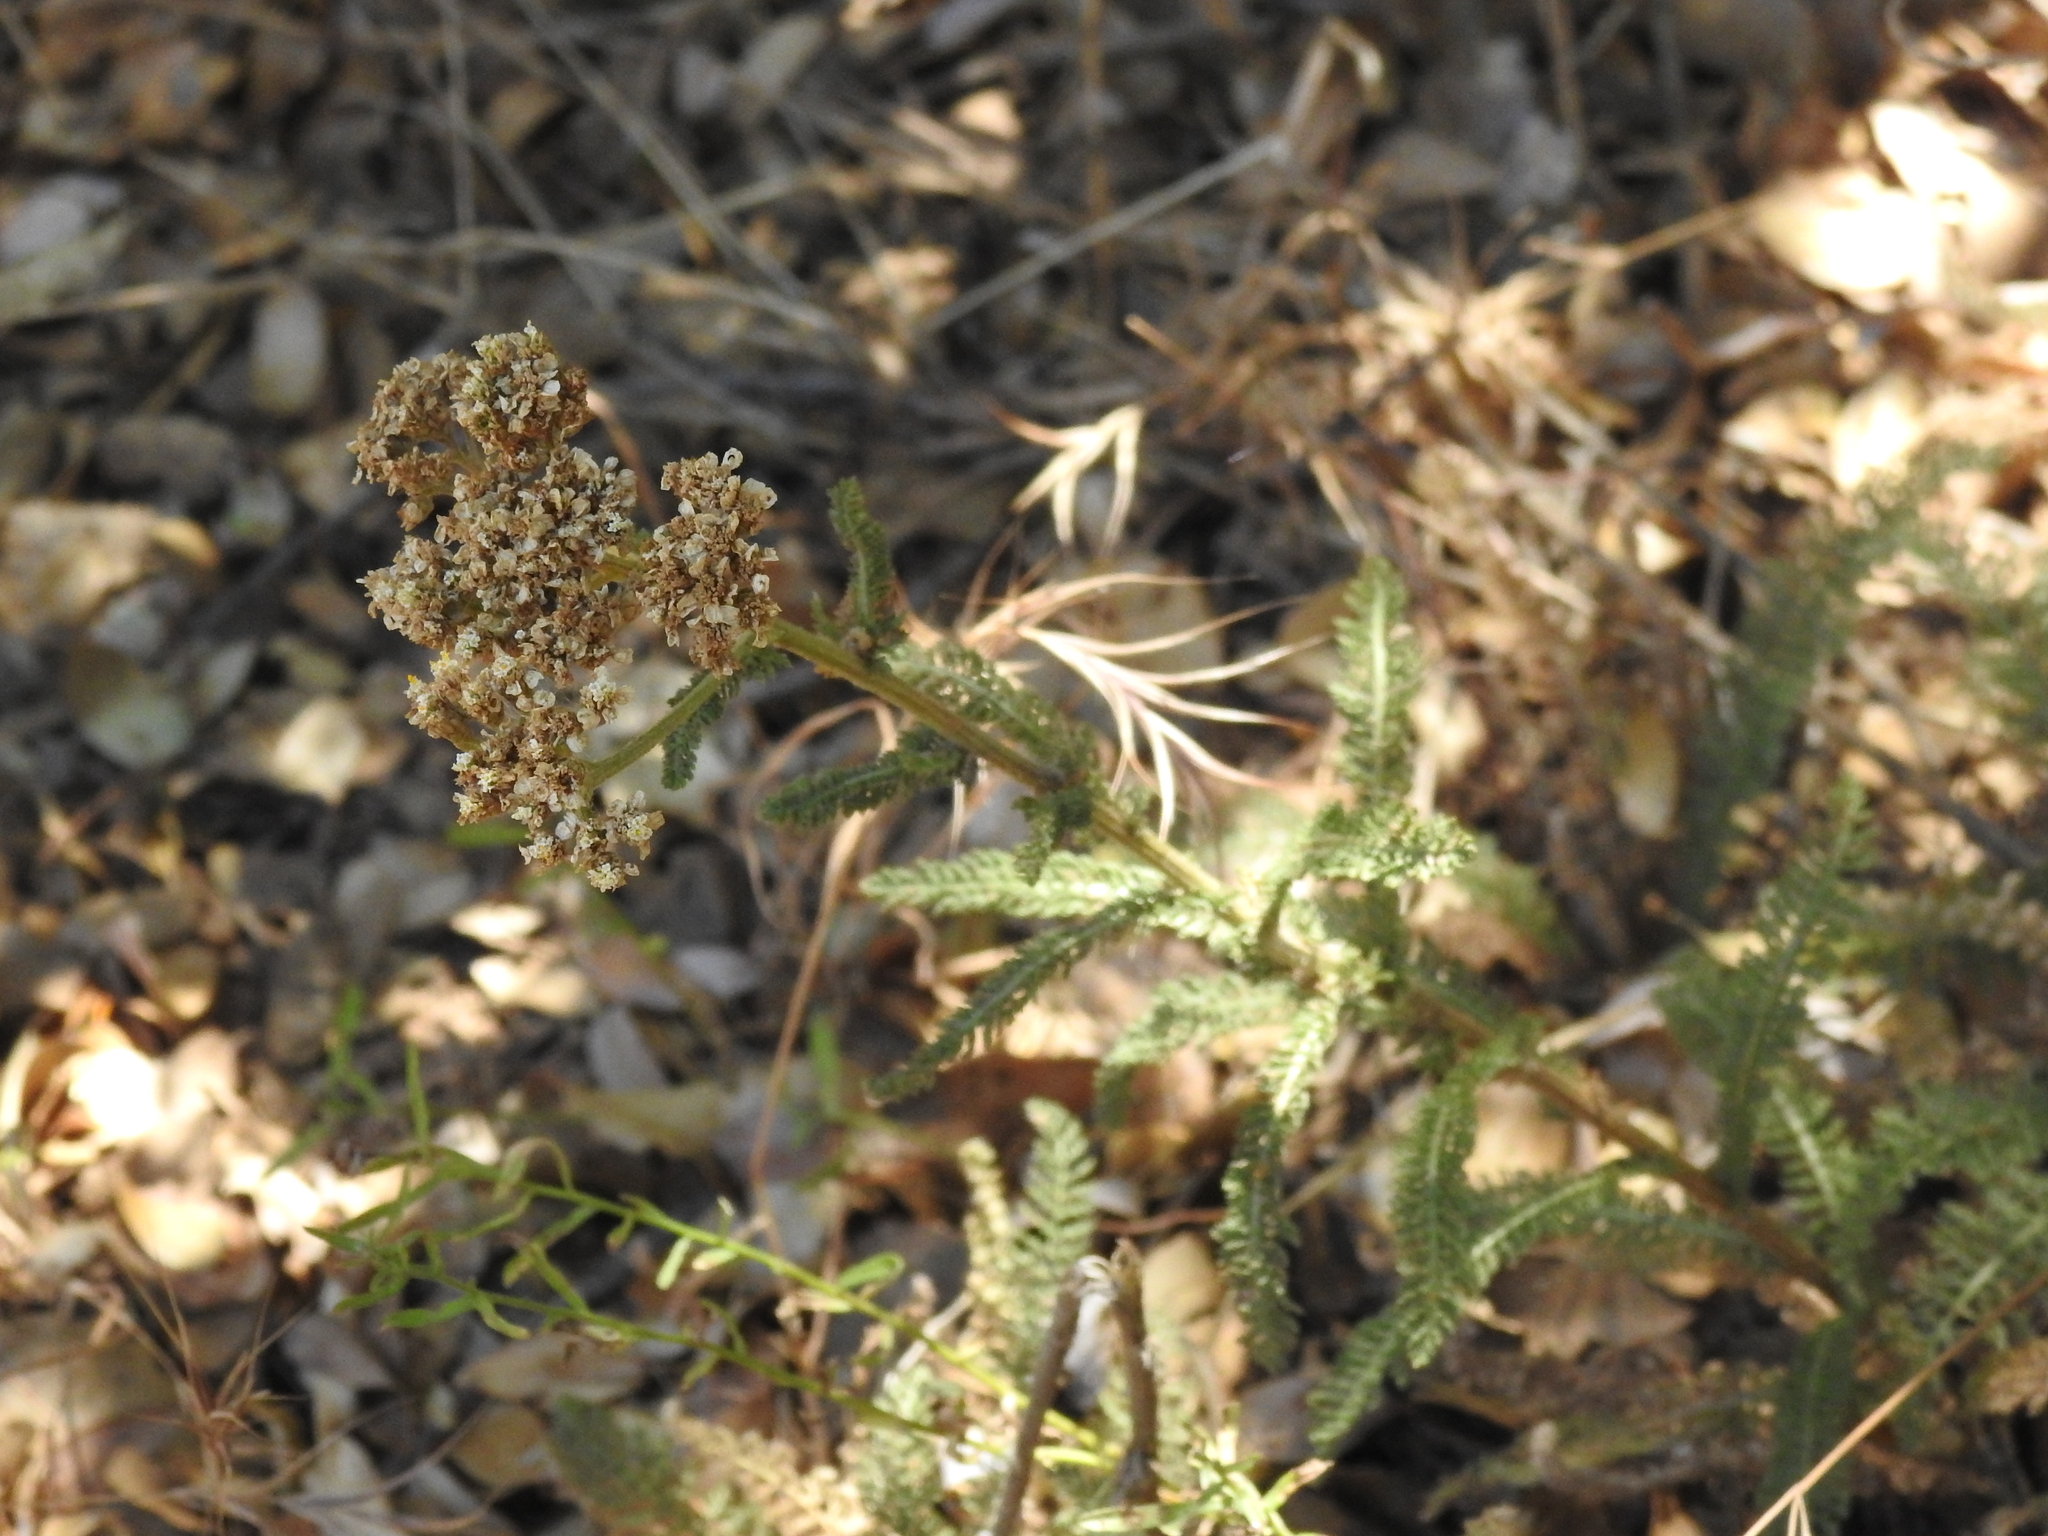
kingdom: Plantae
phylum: Tracheophyta
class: Magnoliopsida
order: Asterales
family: Asteraceae
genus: Achillea
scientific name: Achillea millefolium
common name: Yarrow
